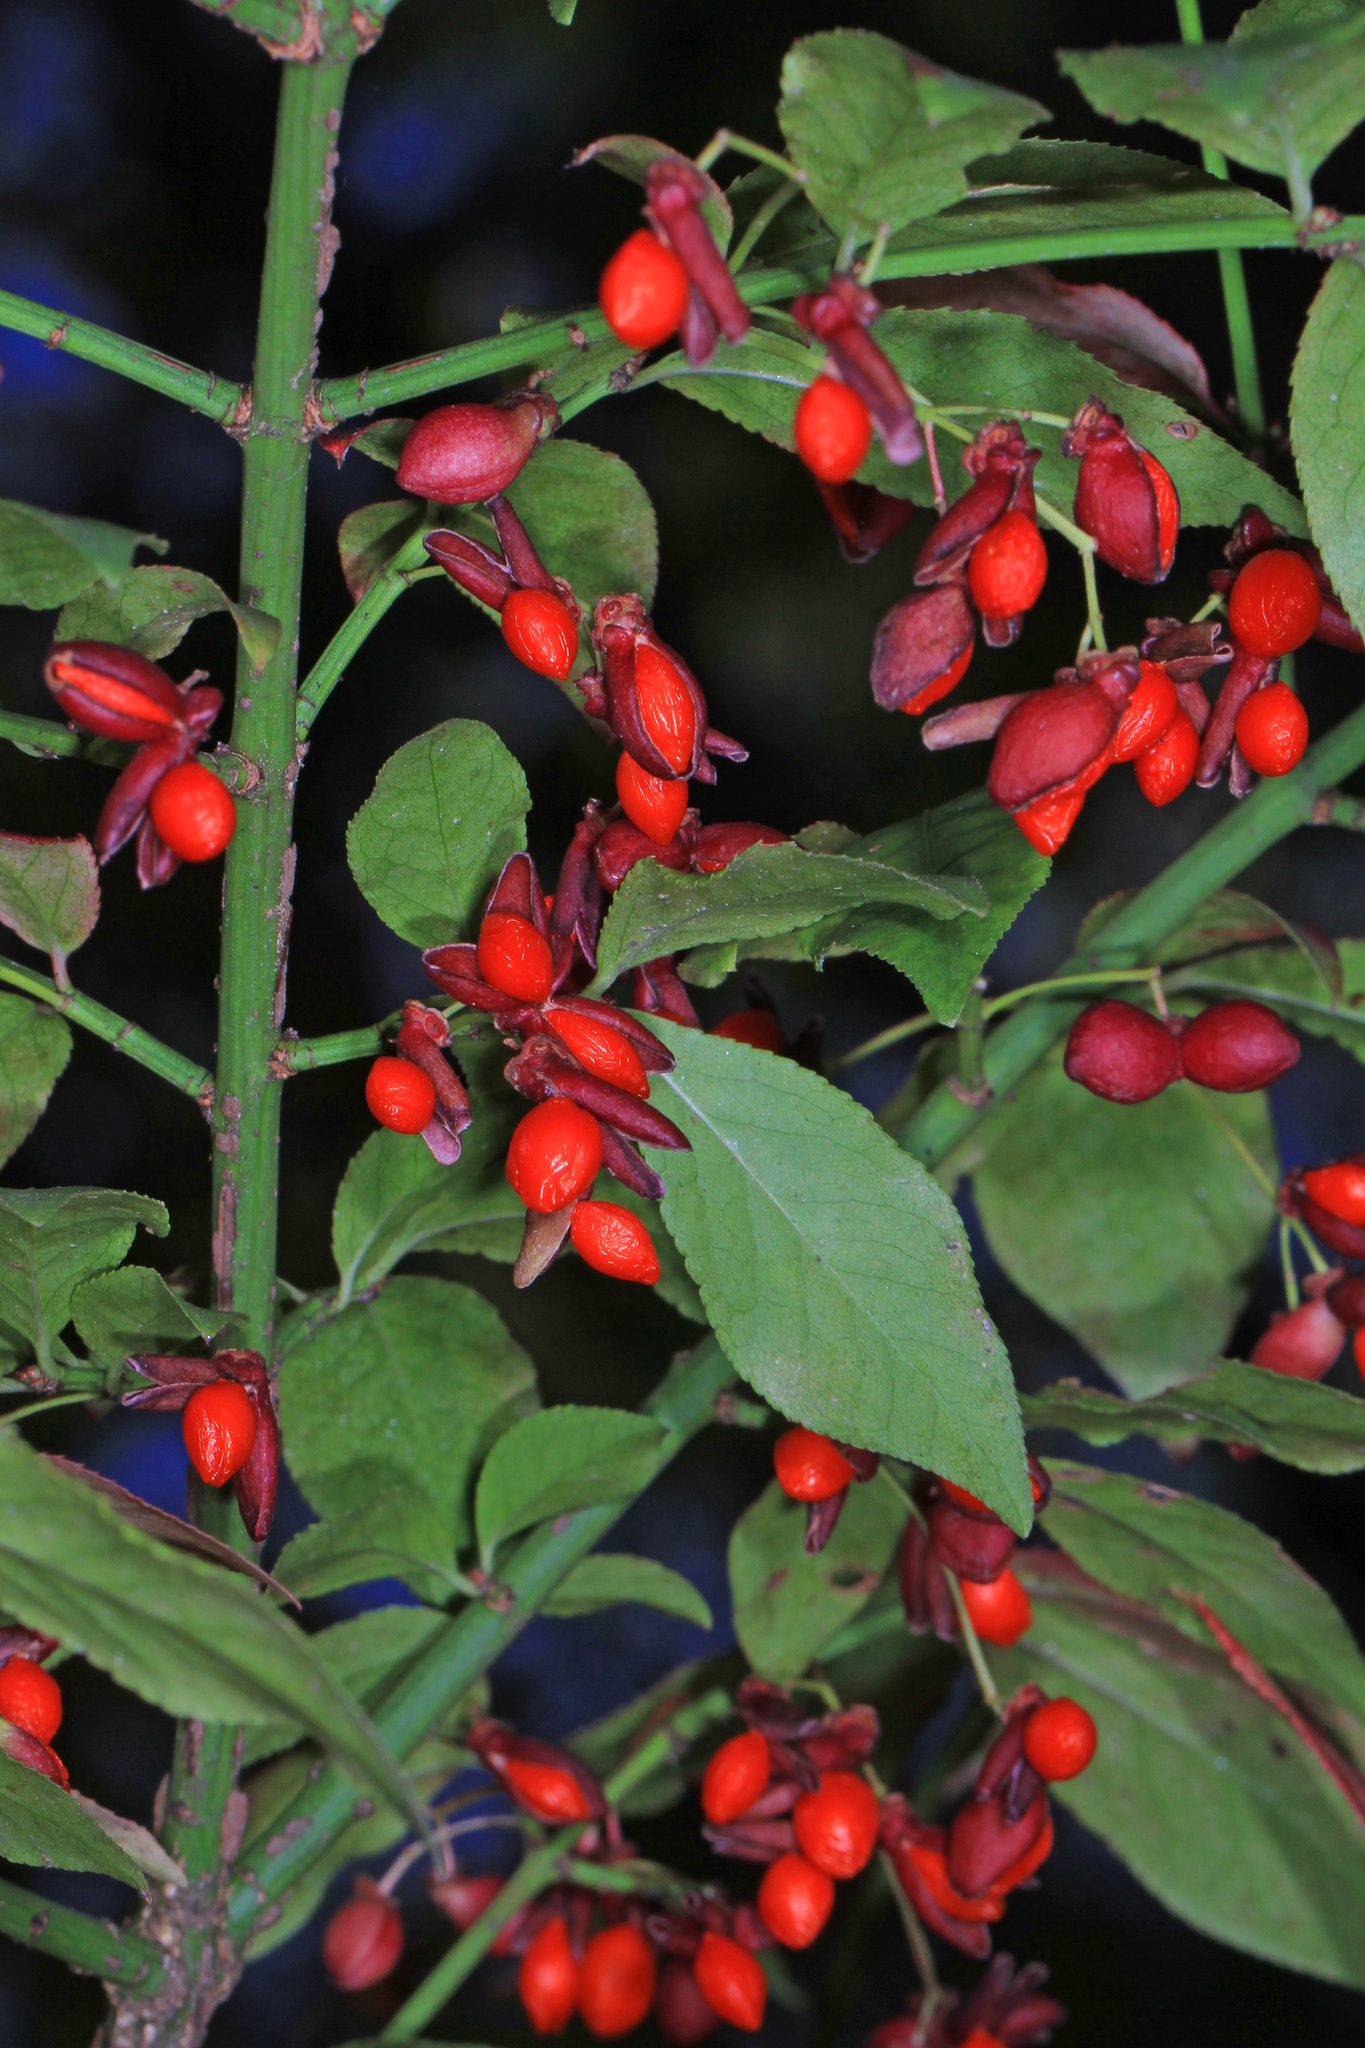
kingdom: Plantae
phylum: Tracheophyta
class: Magnoliopsida
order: Celastrales
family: Celastraceae
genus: Euonymus
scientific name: Euonymus alatus
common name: Winged euonymus
